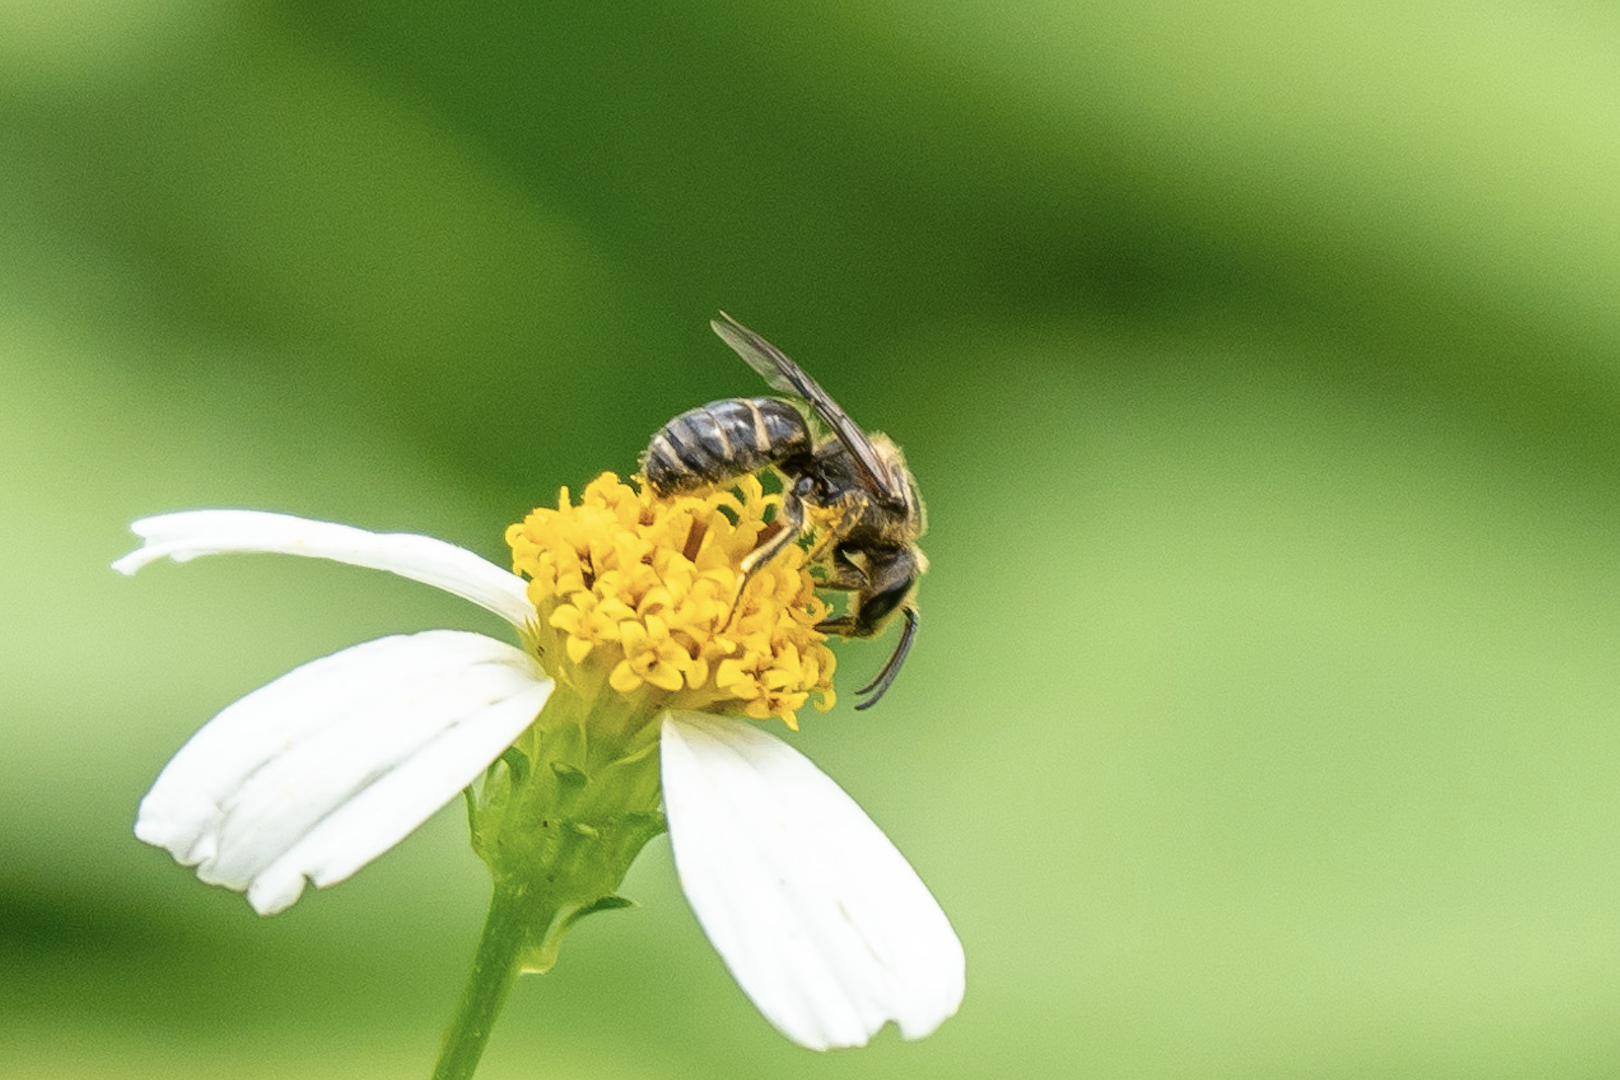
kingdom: Animalia
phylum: Arthropoda
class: Insecta
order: Hymenoptera
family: Halictidae
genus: Lasioglossum
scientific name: Lasioglossum albescens
